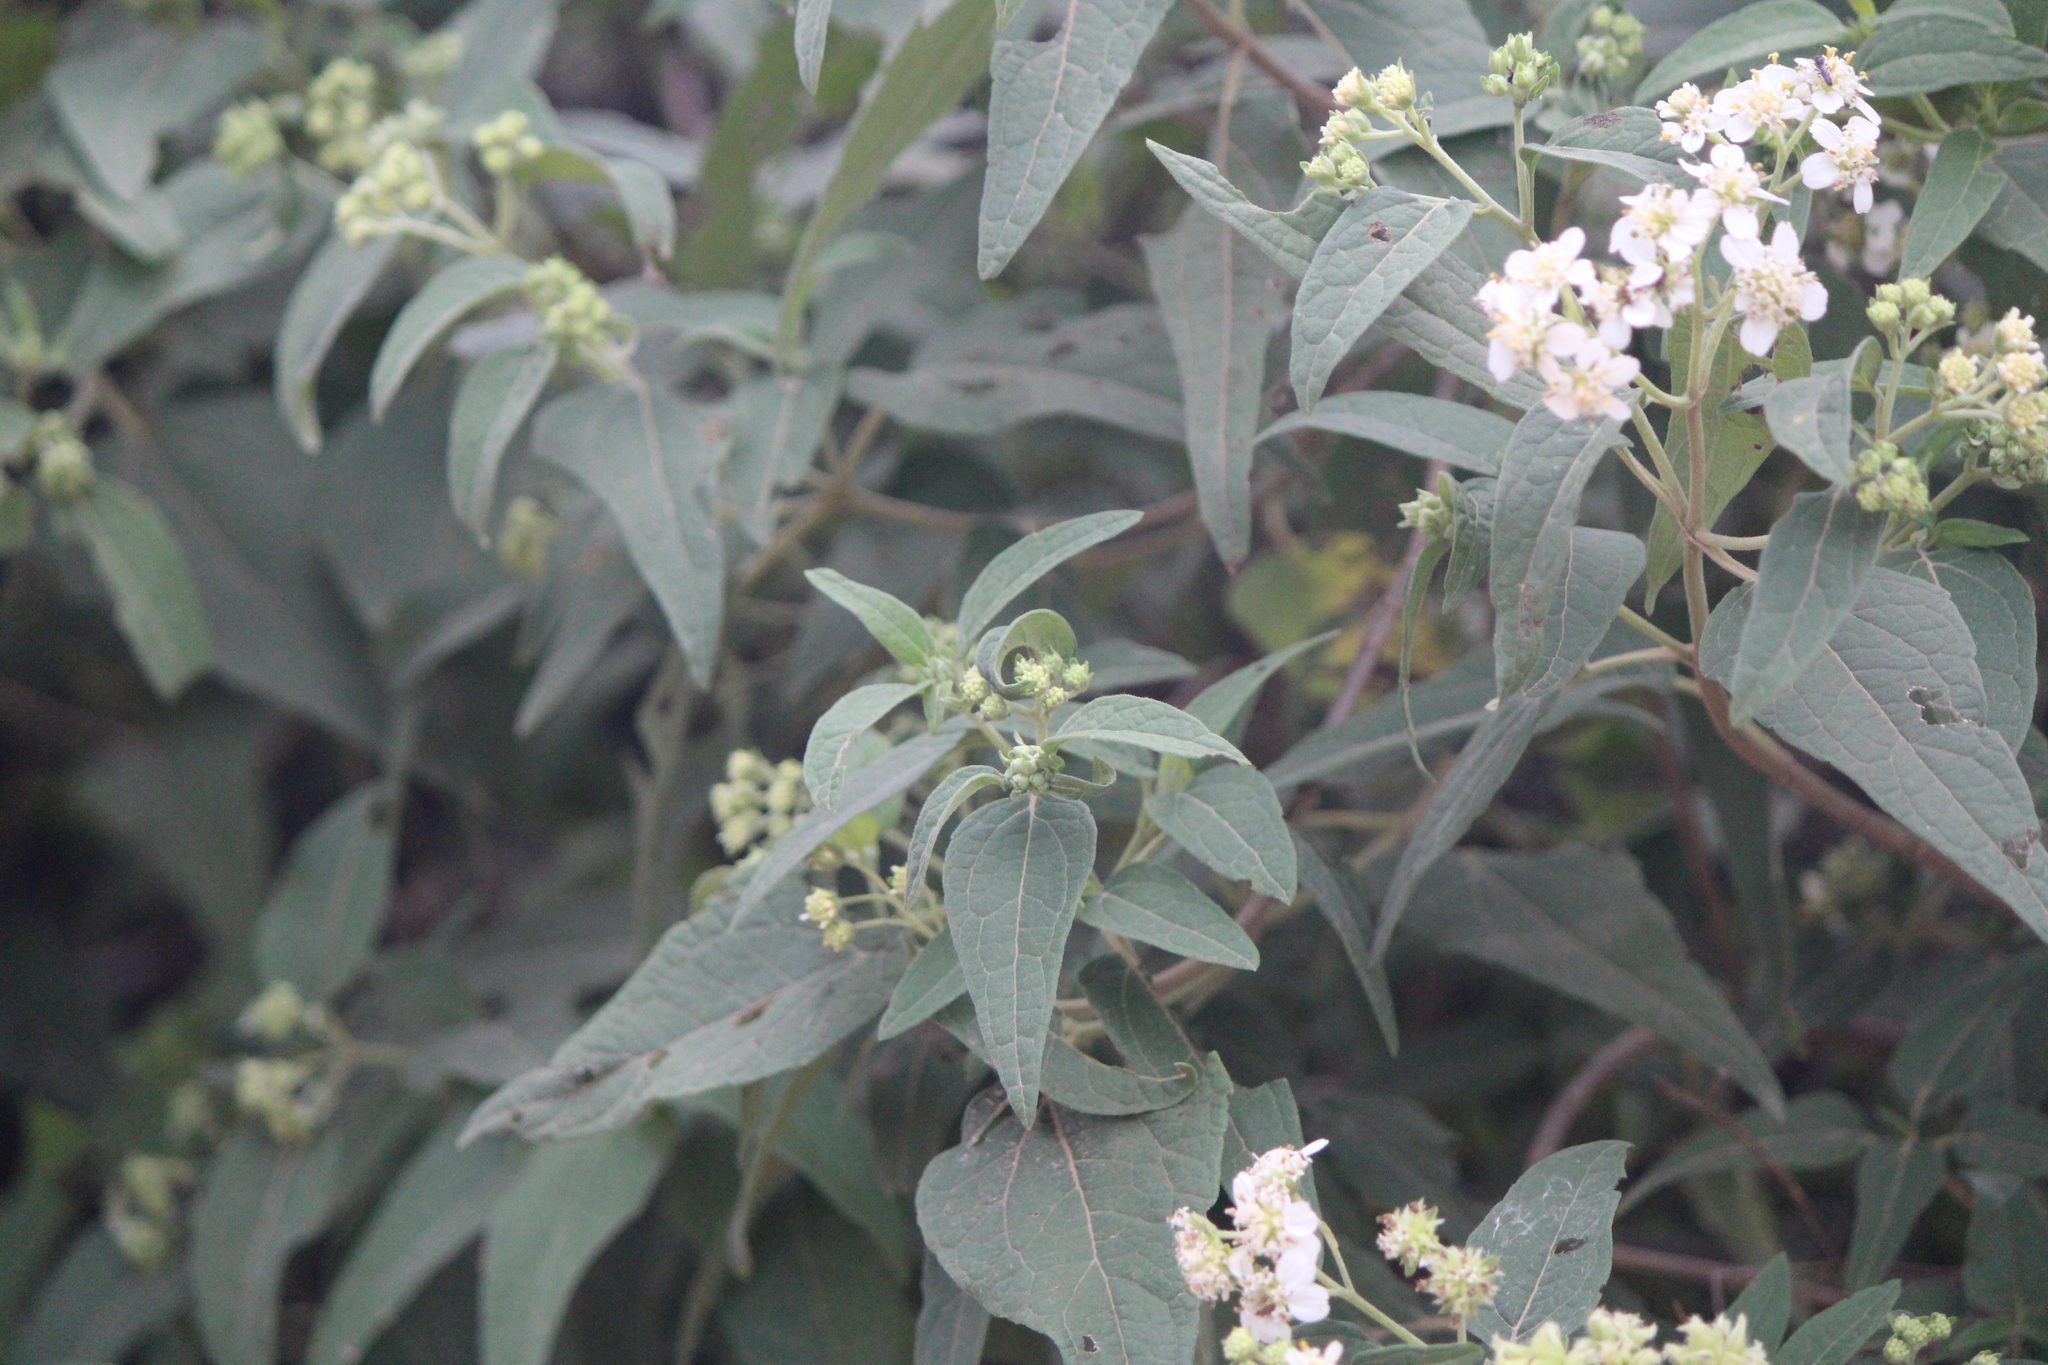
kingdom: Plantae
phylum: Tracheophyta
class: Magnoliopsida
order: Asterales
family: Asteraceae
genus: Montanoa
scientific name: Montanoa tomentosa
